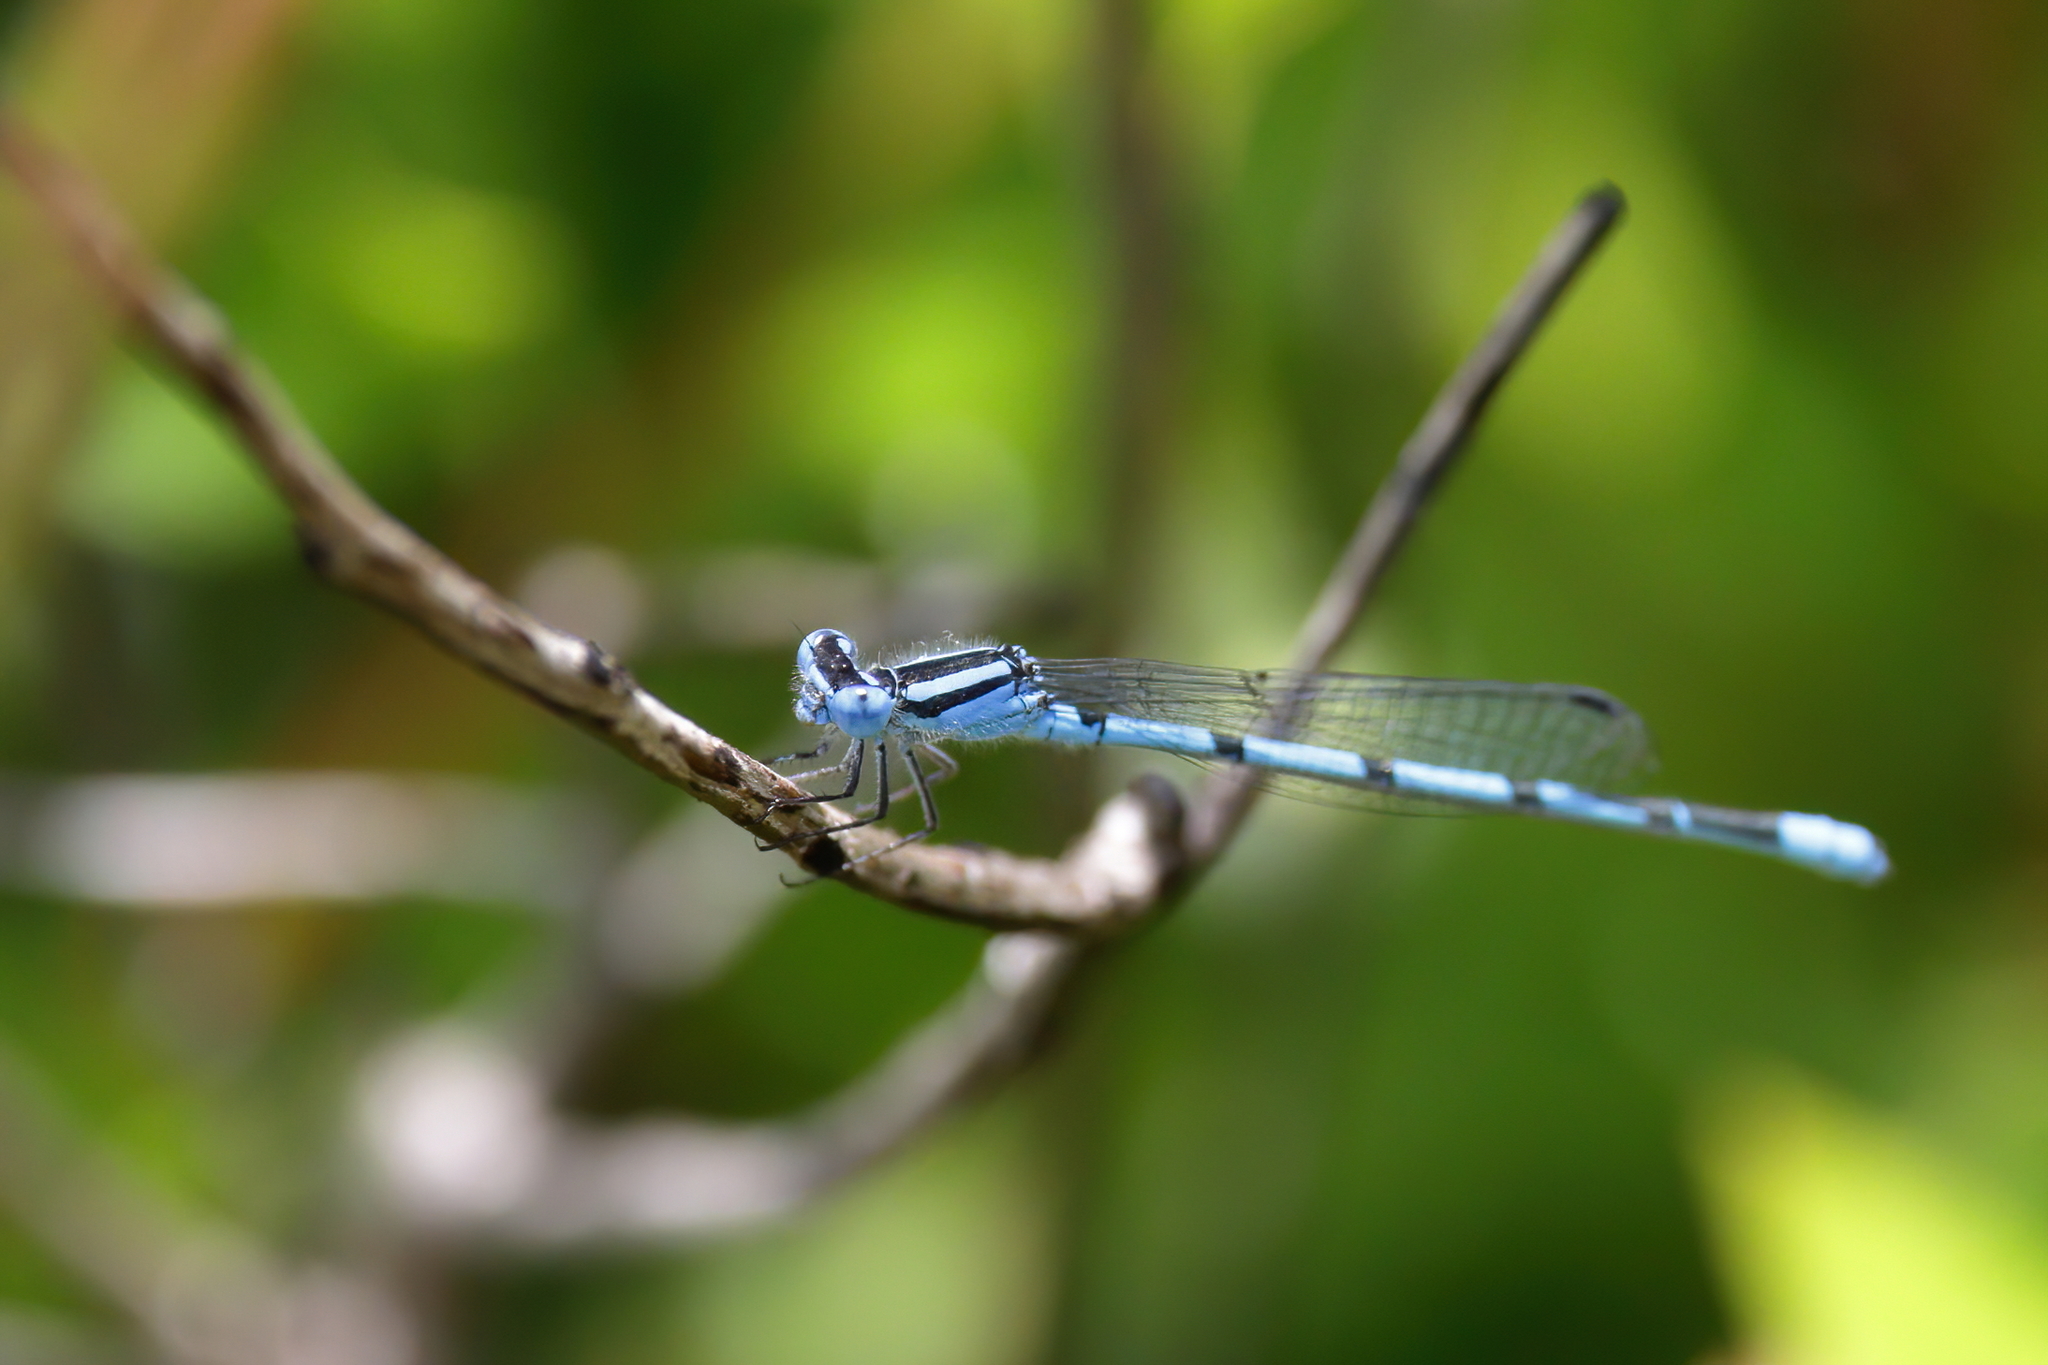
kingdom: Animalia
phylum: Arthropoda
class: Insecta
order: Odonata
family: Coenagrionidae
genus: Enallagma
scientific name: Enallagma doubledayi
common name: Atlantic bluet
